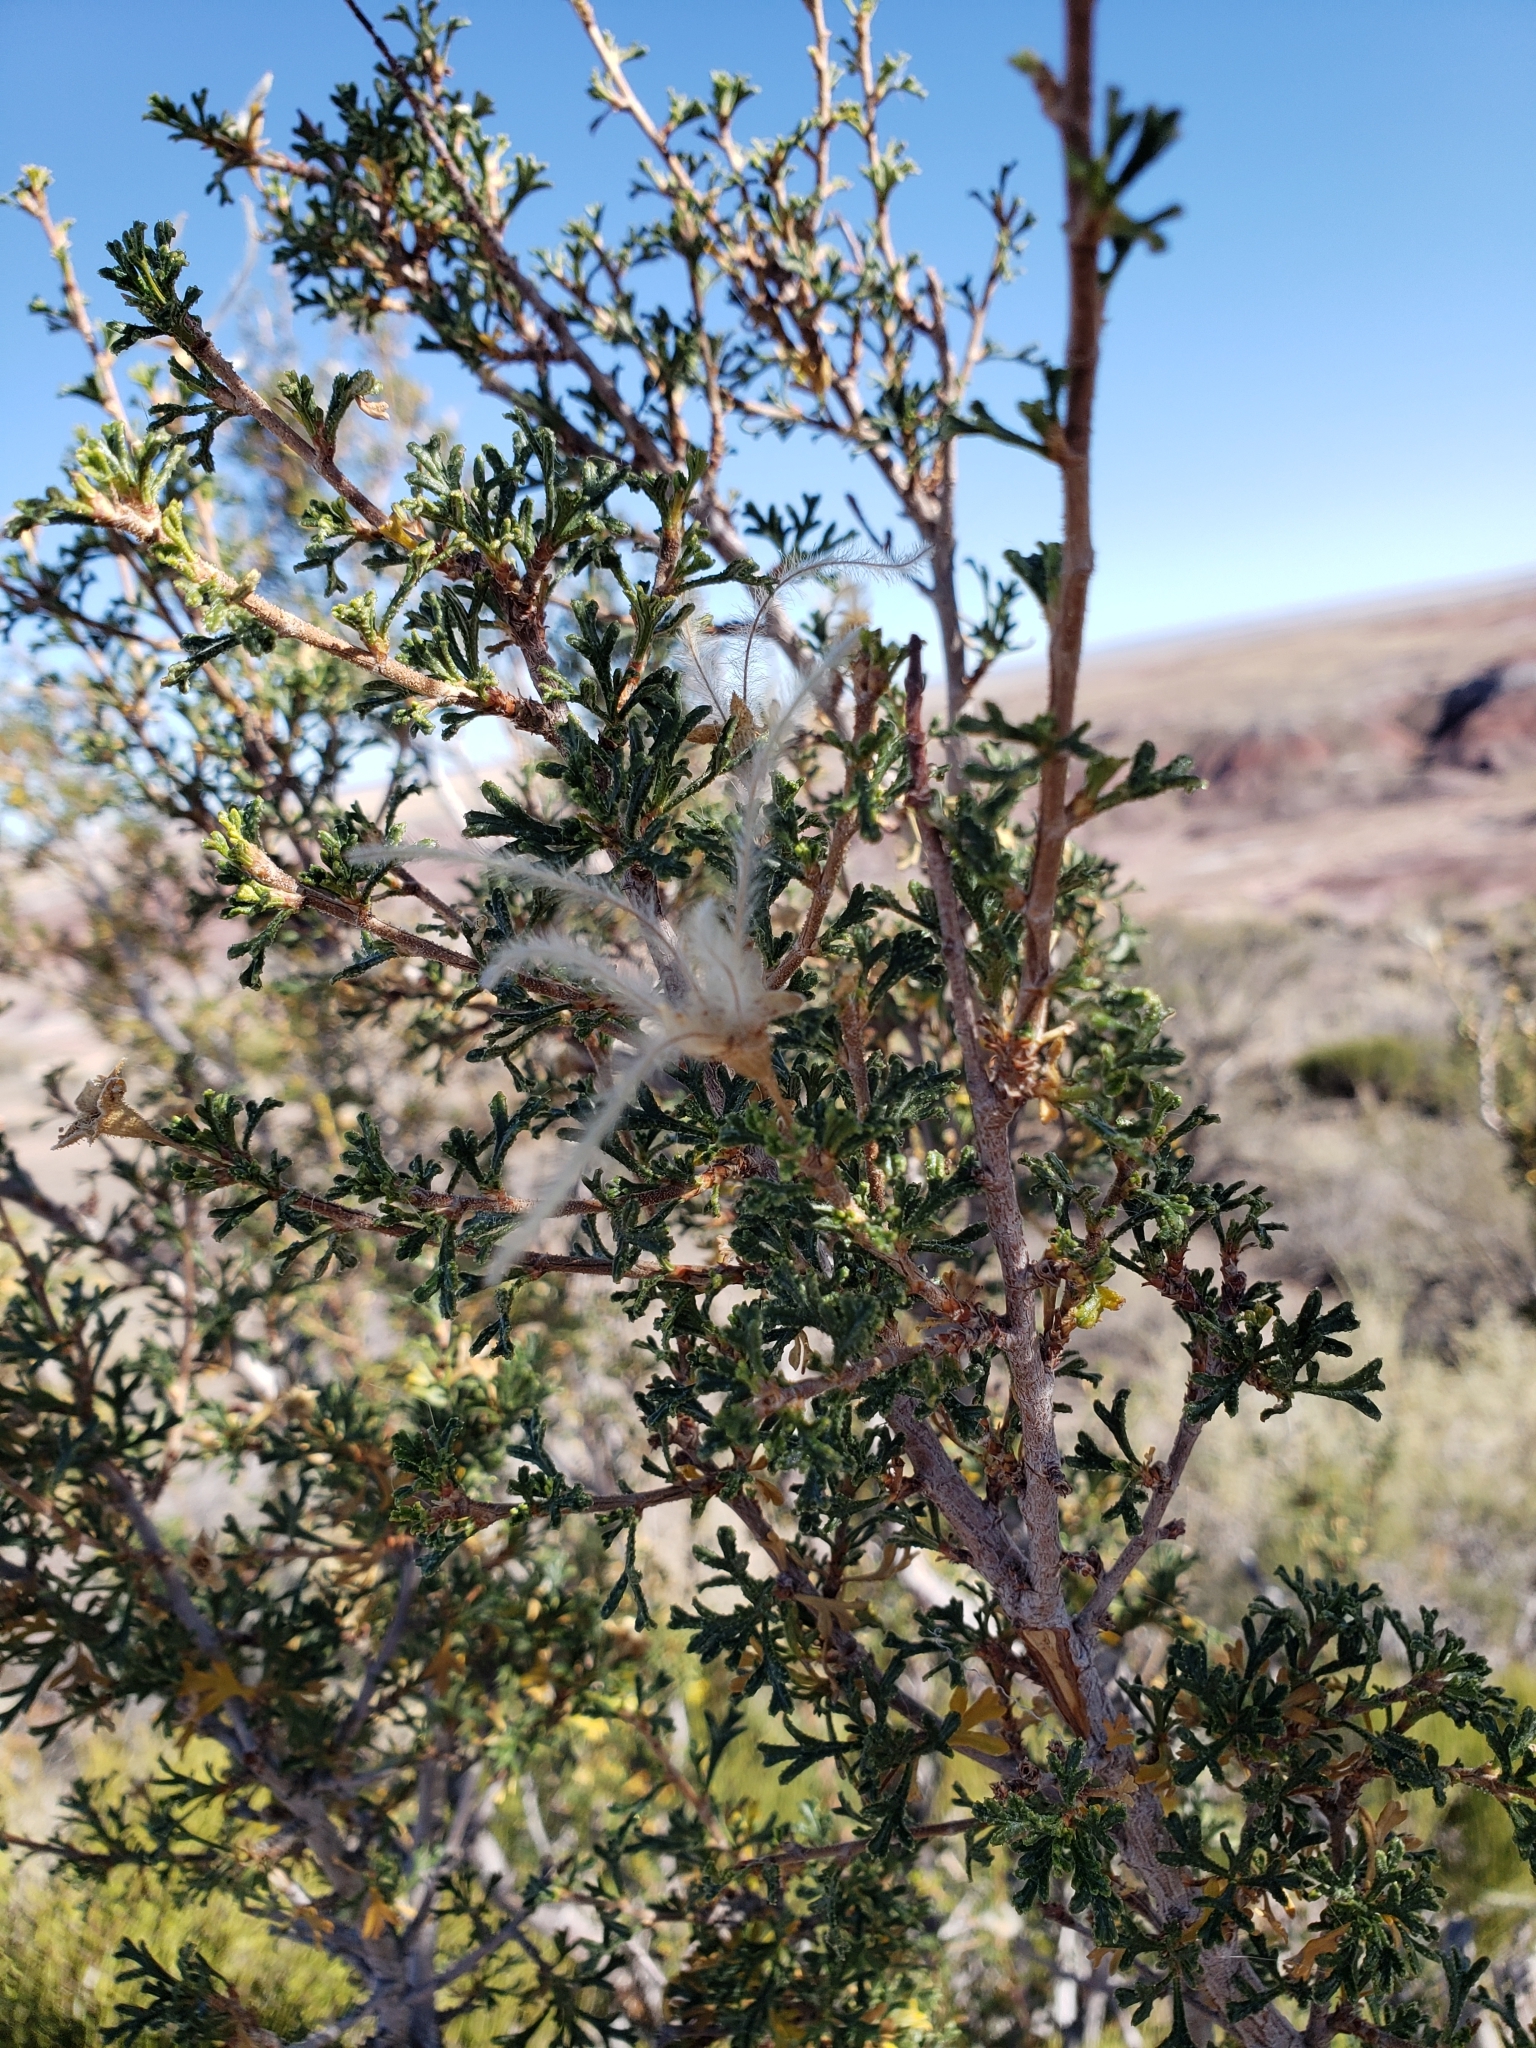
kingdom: Plantae
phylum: Tracheophyta
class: Magnoliopsida
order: Rosales
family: Rosaceae
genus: Purshia
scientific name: Purshia stansburiana
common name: Stansbury's cliffrose
